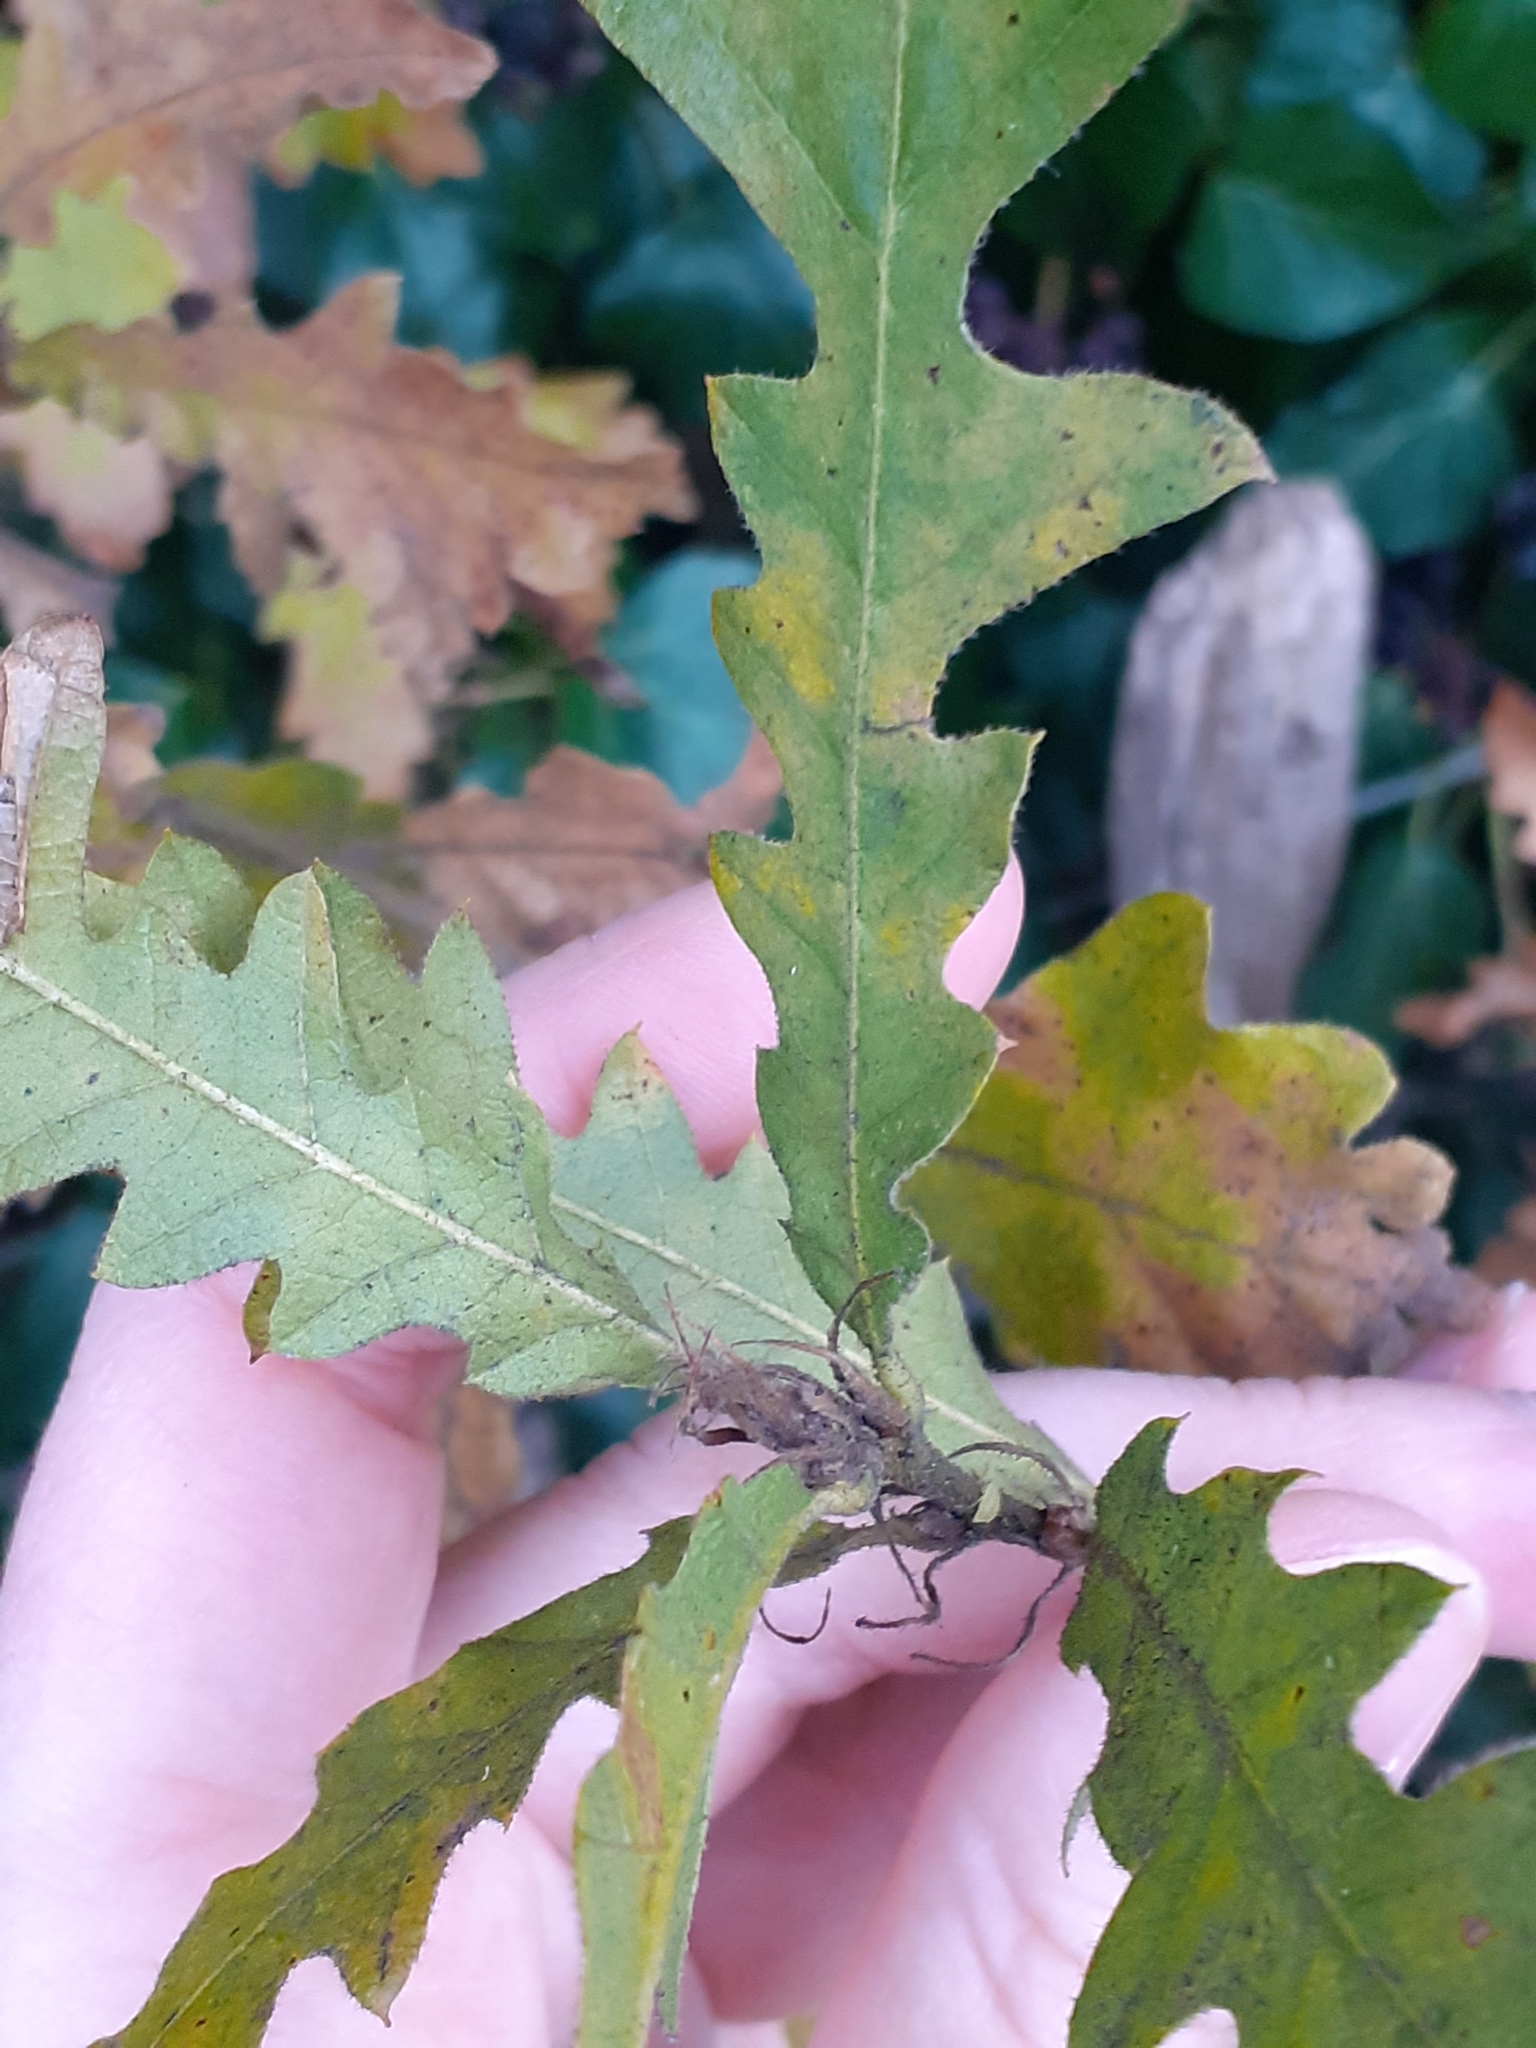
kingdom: Plantae
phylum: Tracheophyta
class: Magnoliopsida
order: Fagales
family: Fagaceae
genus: Quercus
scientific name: Quercus cerris
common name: Turkey oak
